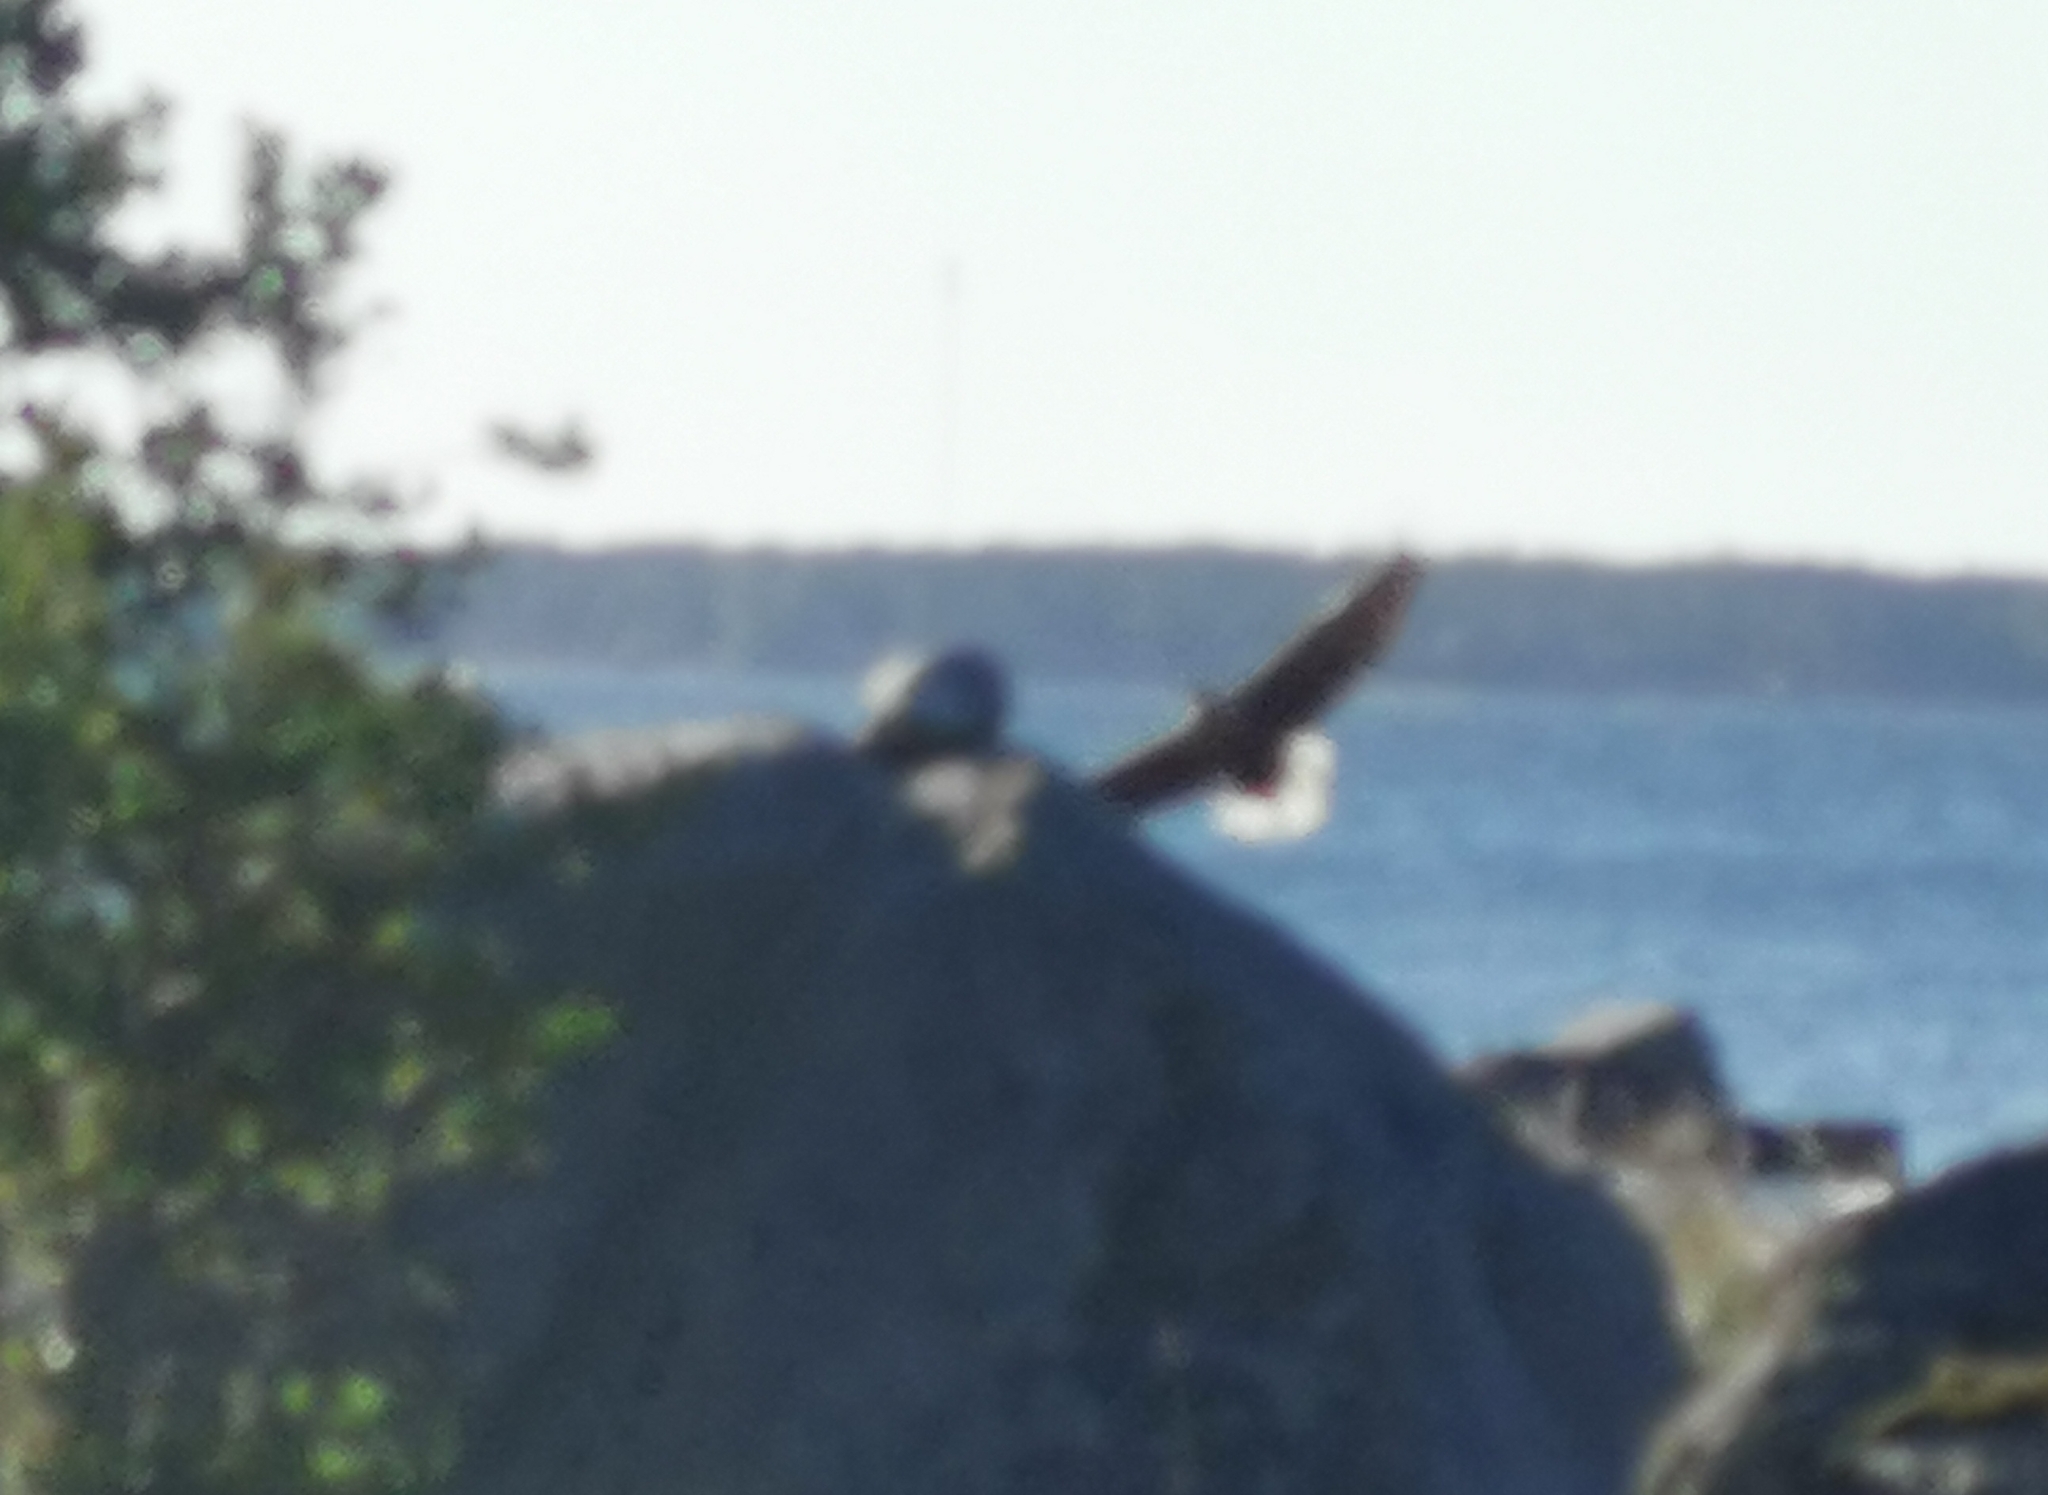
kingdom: Animalia
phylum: Chordata
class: Aves
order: Accipitriformes
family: Accipitridae
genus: Haliaeetus
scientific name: Haliaeetus albicilla
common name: White-tailed eagle
